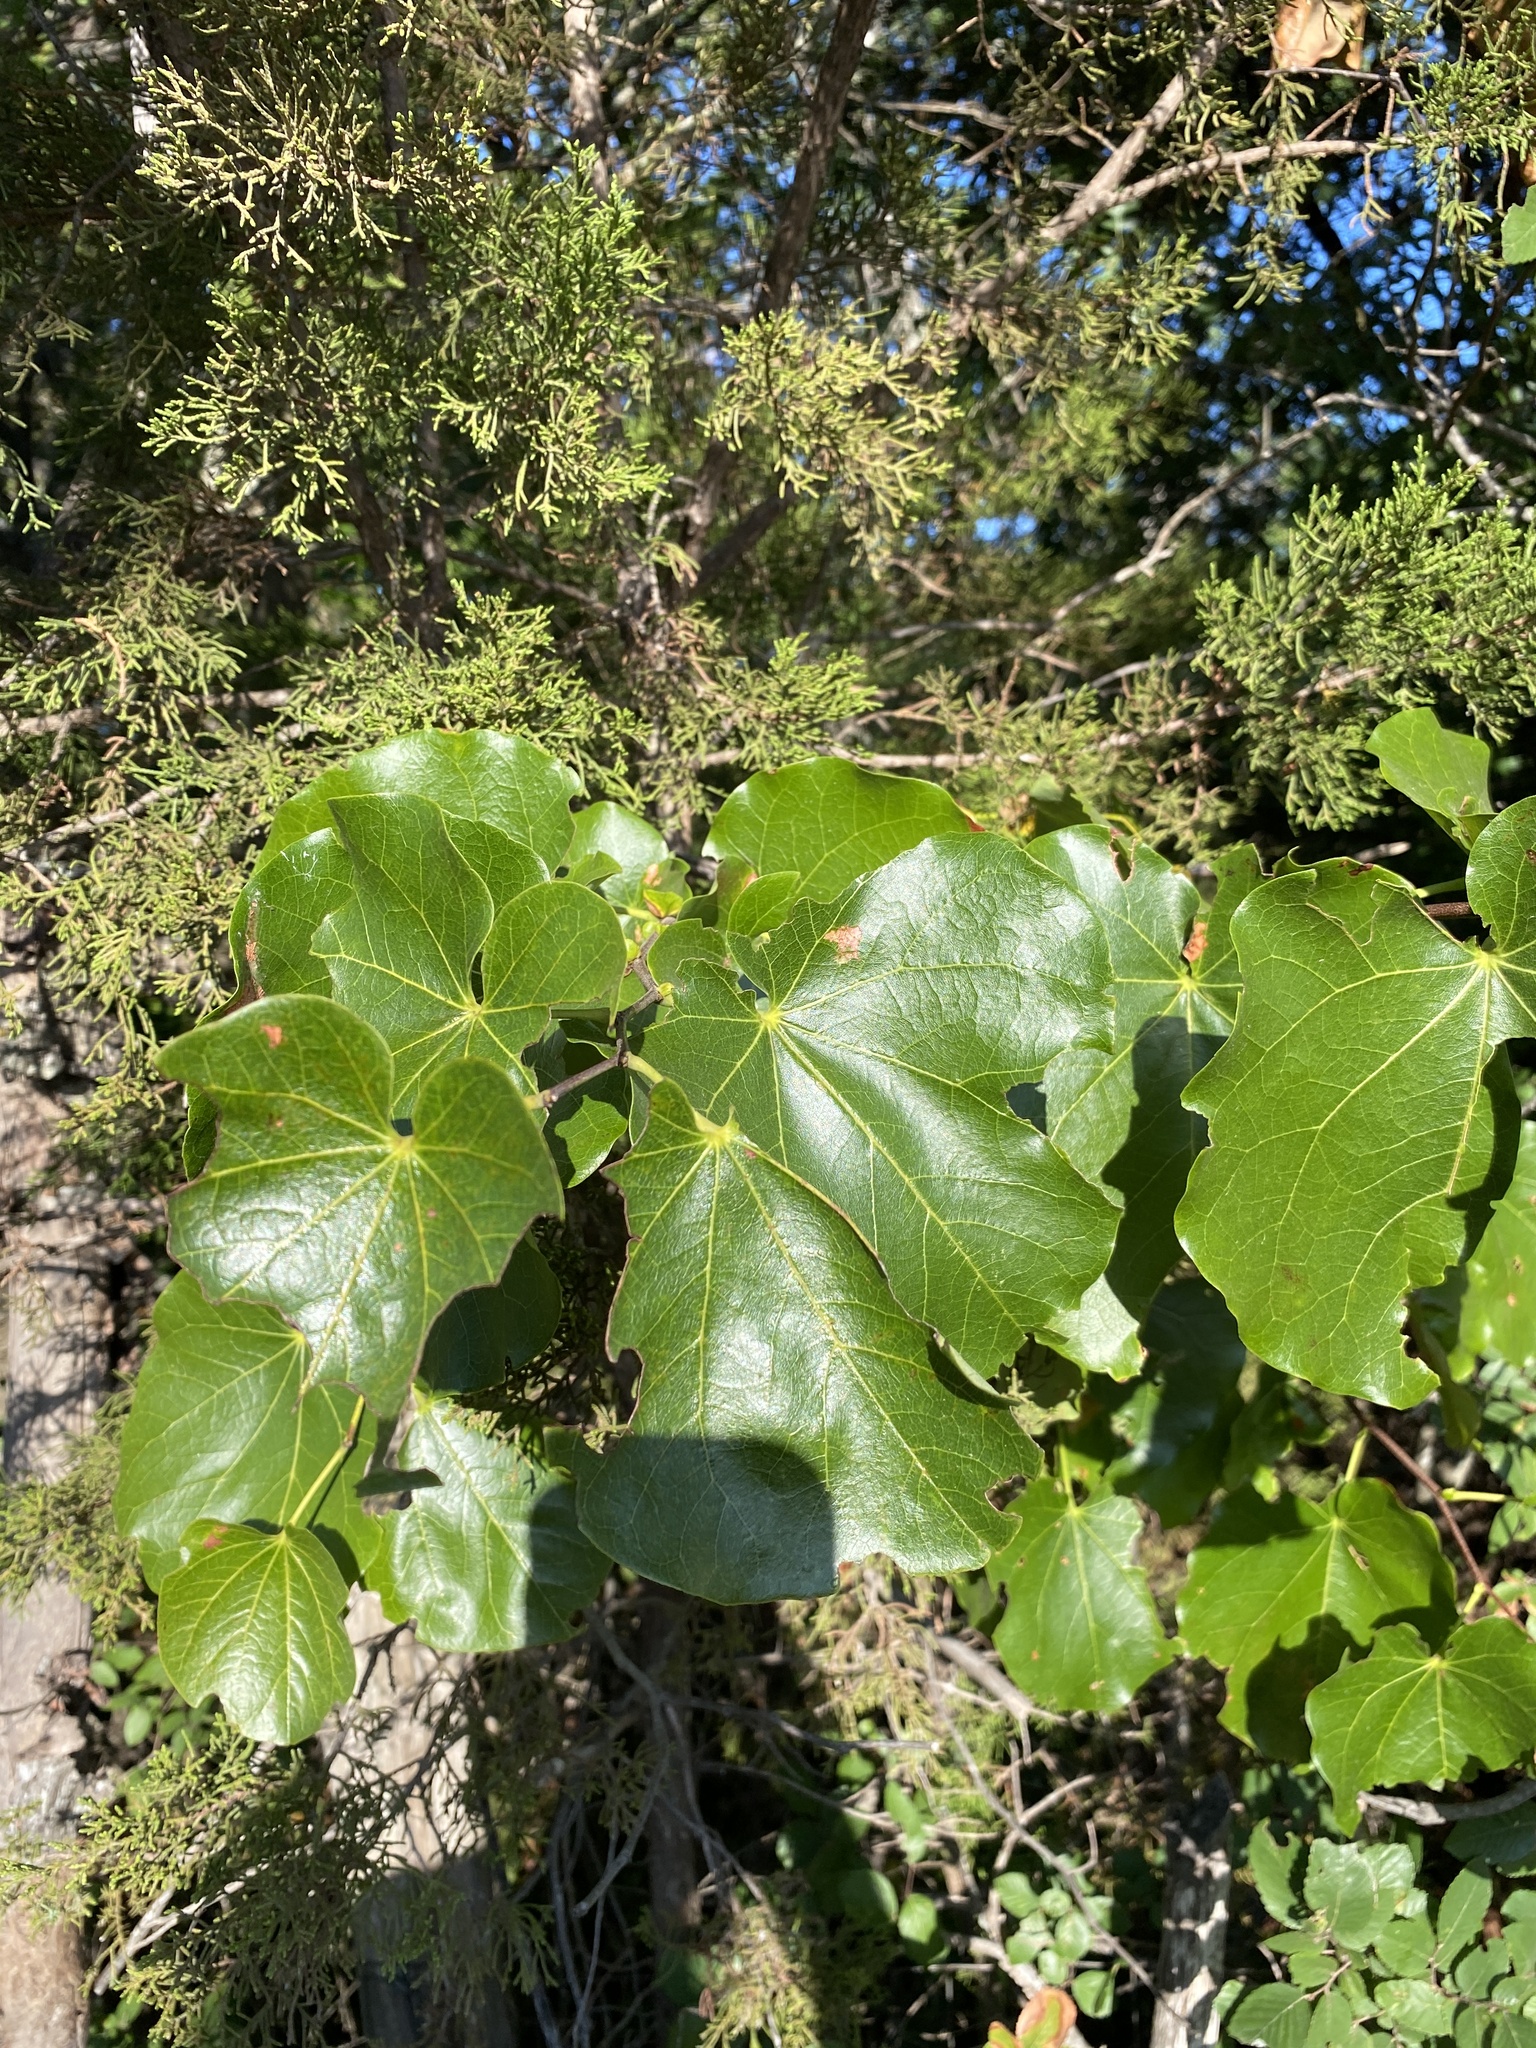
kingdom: Plantae
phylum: Tracheophyta
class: Magnoliopsida
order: Fabales
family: Fabaceae
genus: Cercis
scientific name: Cercis canadensis
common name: Eastern redbud
